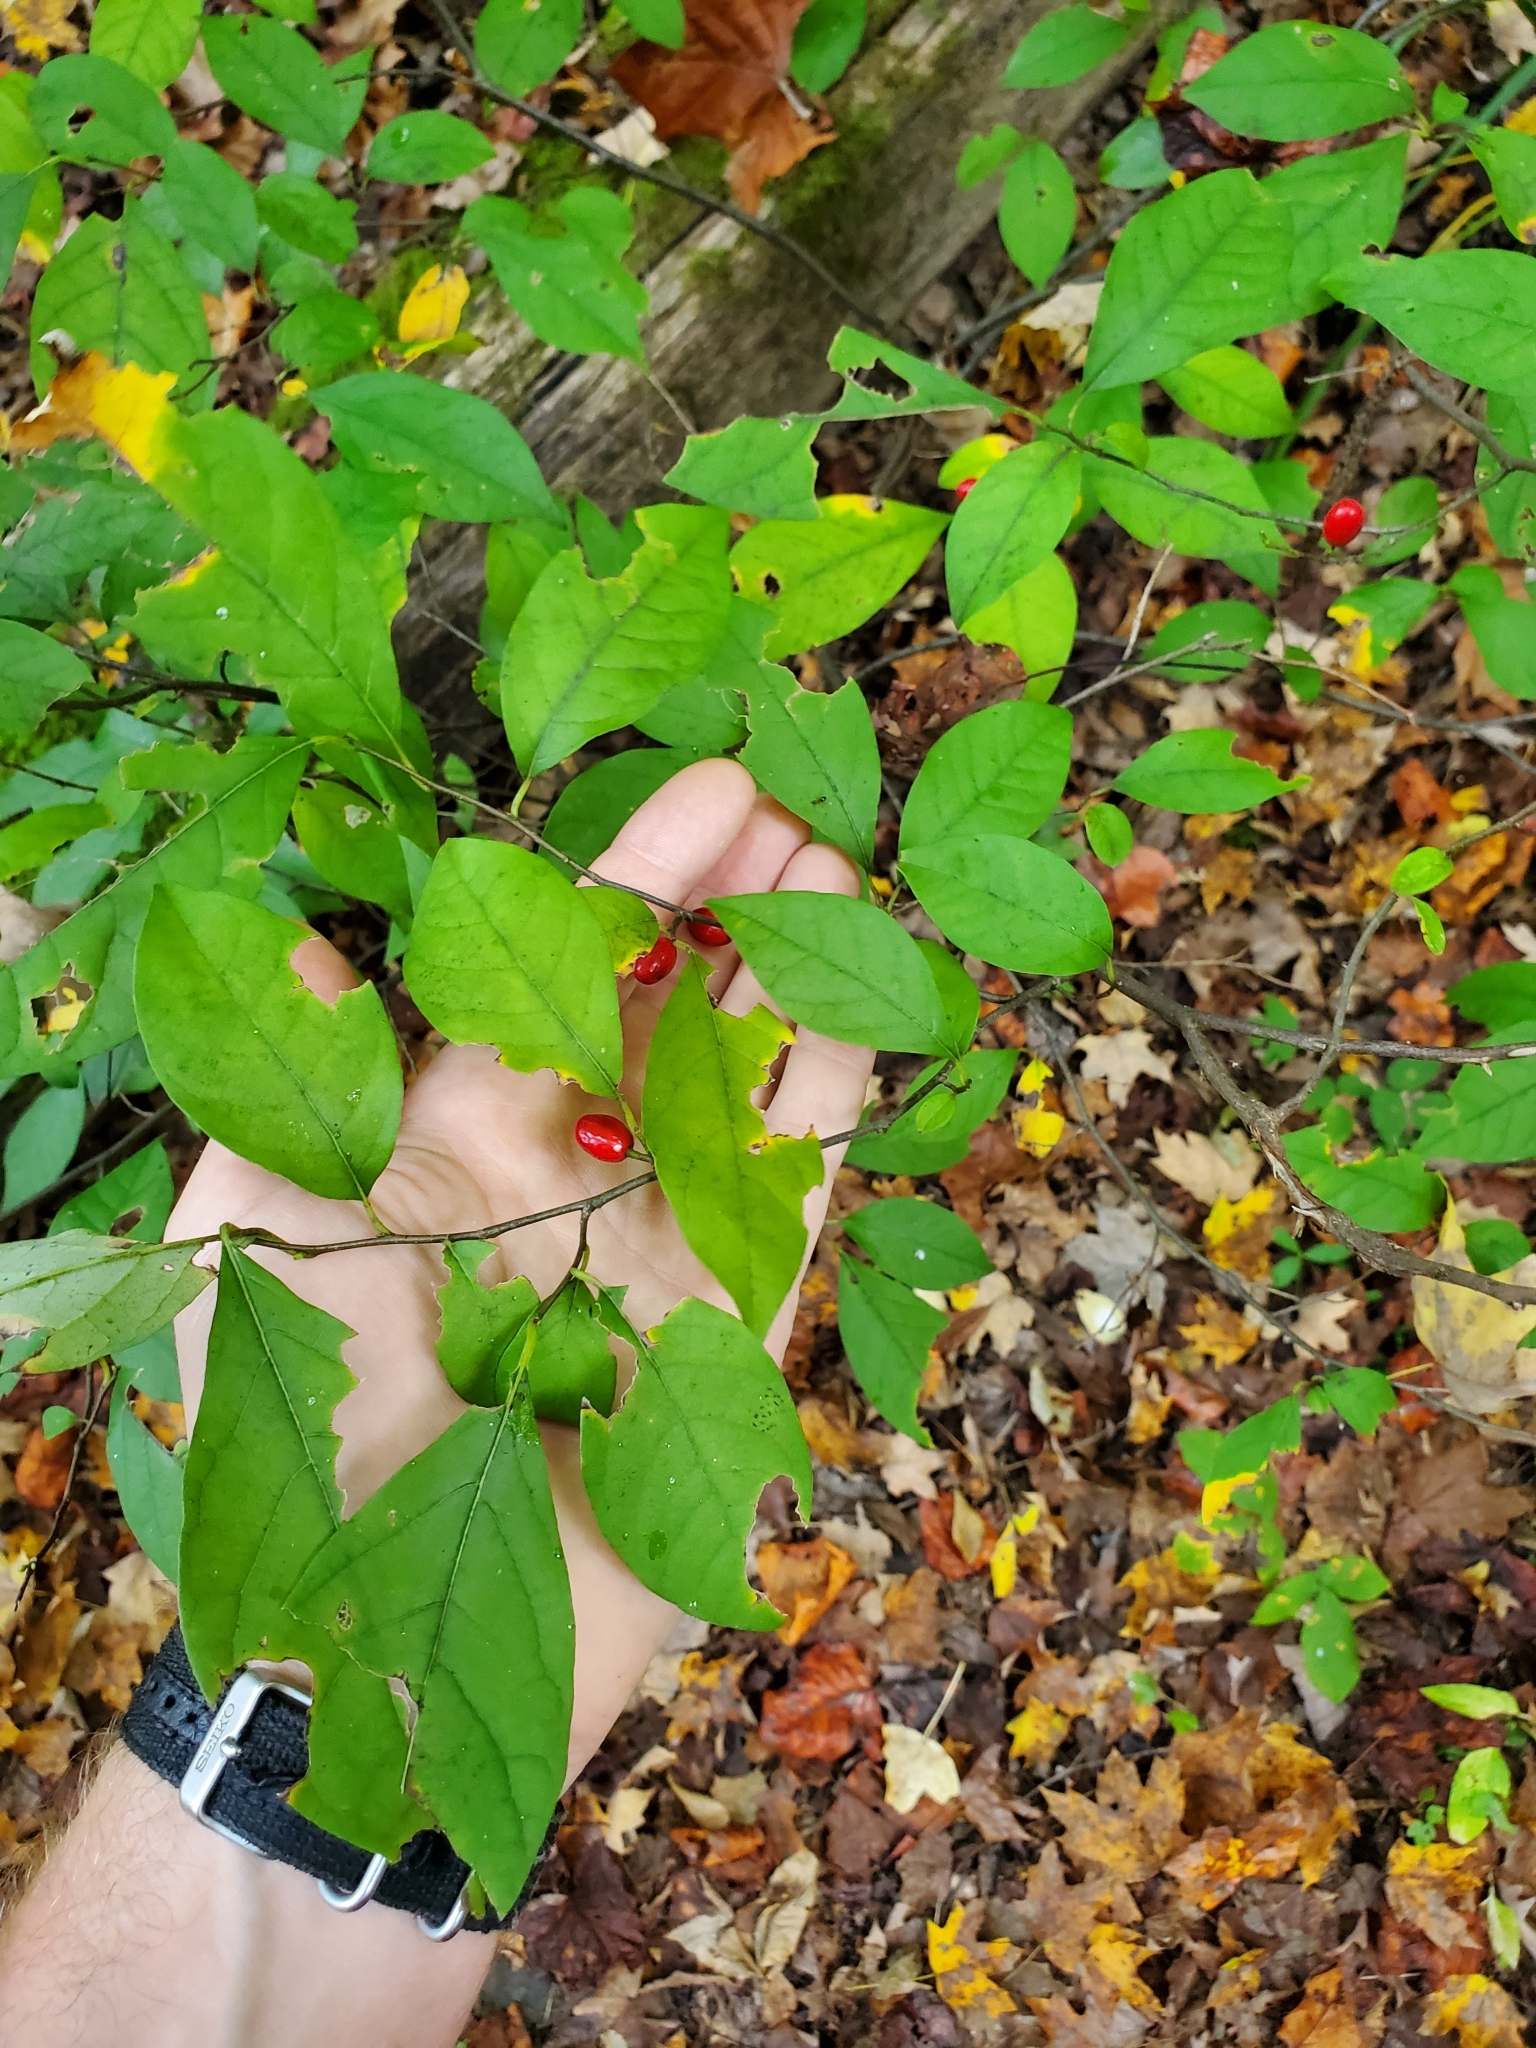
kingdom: Plantae
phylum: Tracheophyta
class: Magnoliopsida
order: Laurales
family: Lauraceae
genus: Lindera
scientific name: Lindera benzoin
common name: Spicebush
